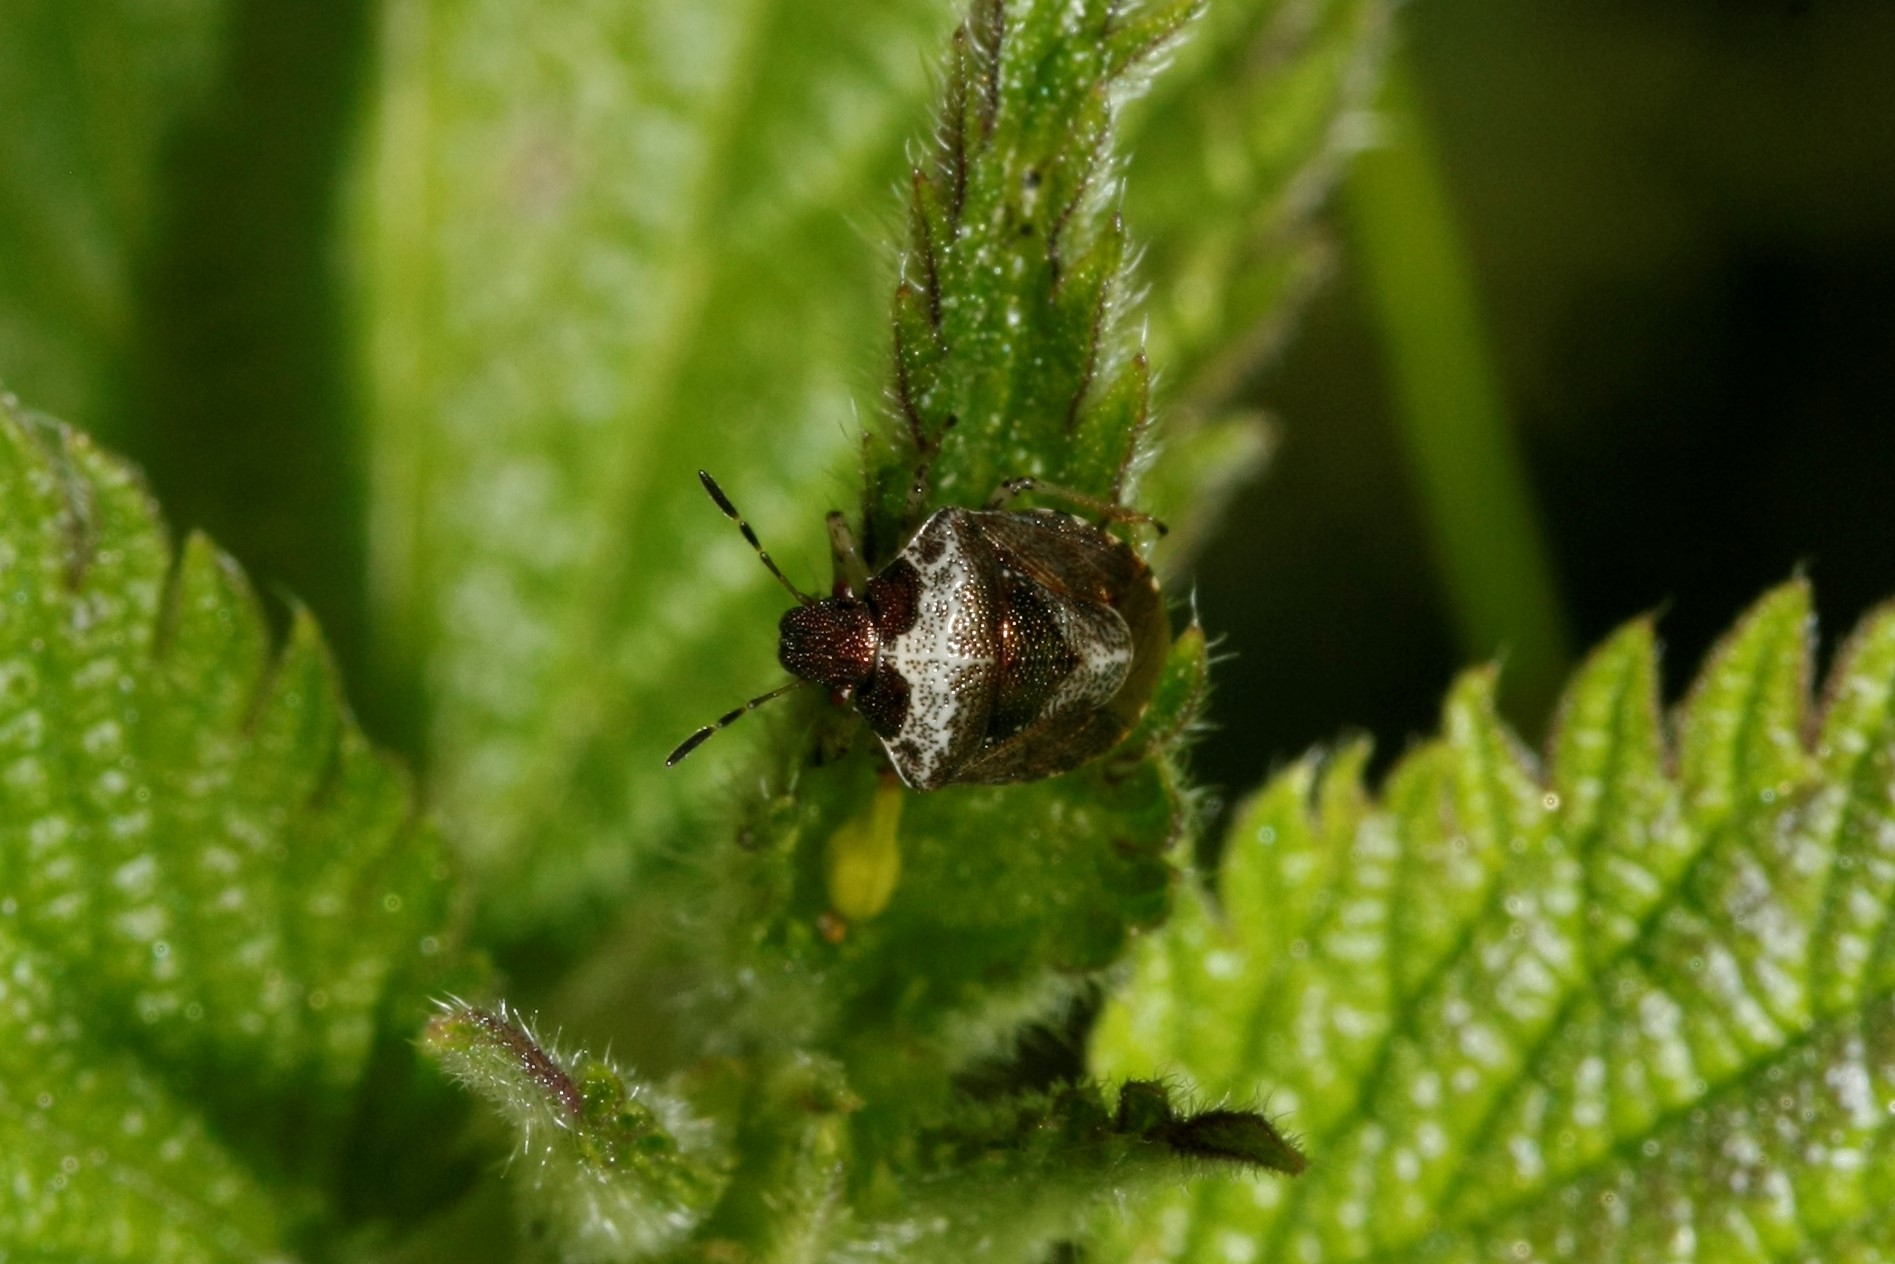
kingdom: Animalia
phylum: Arthropoda
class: Insecta
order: Hemiptera
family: Pentatomidae
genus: Eysarcoris
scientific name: Eysarcoris venustissimus
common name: Woundwort shieldbug
